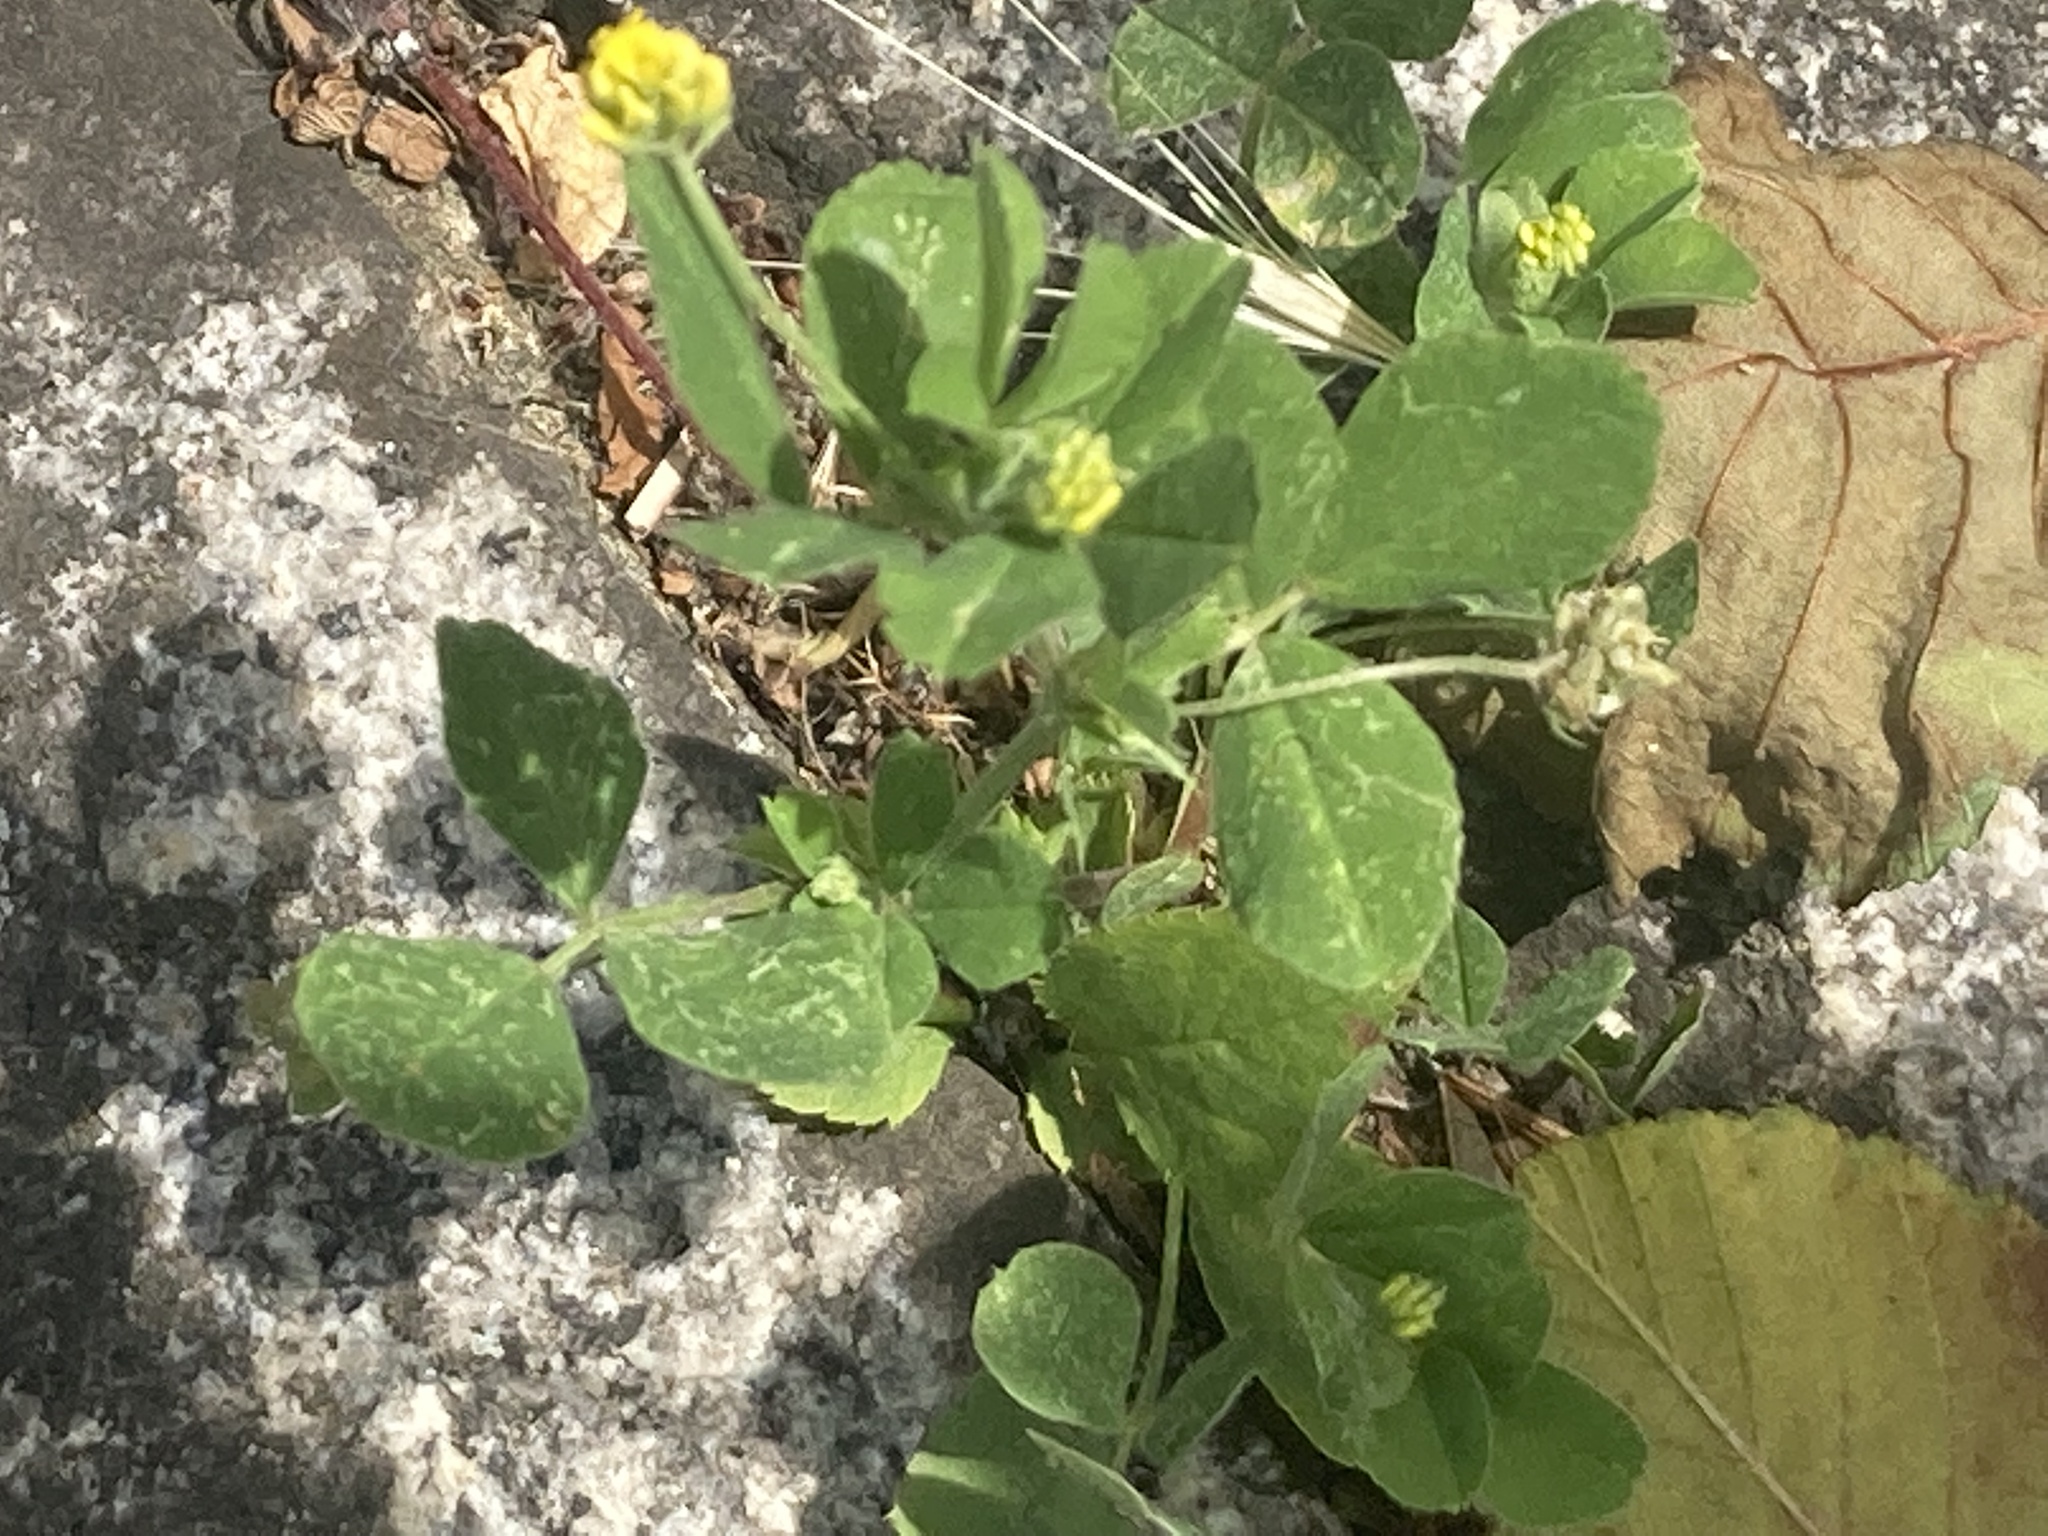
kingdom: Plantae
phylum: Tracheophyta
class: Magnoliopsida
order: Fabales
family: Fabaceae
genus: Medicago
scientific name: Medicago lupulina
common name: Black medick
